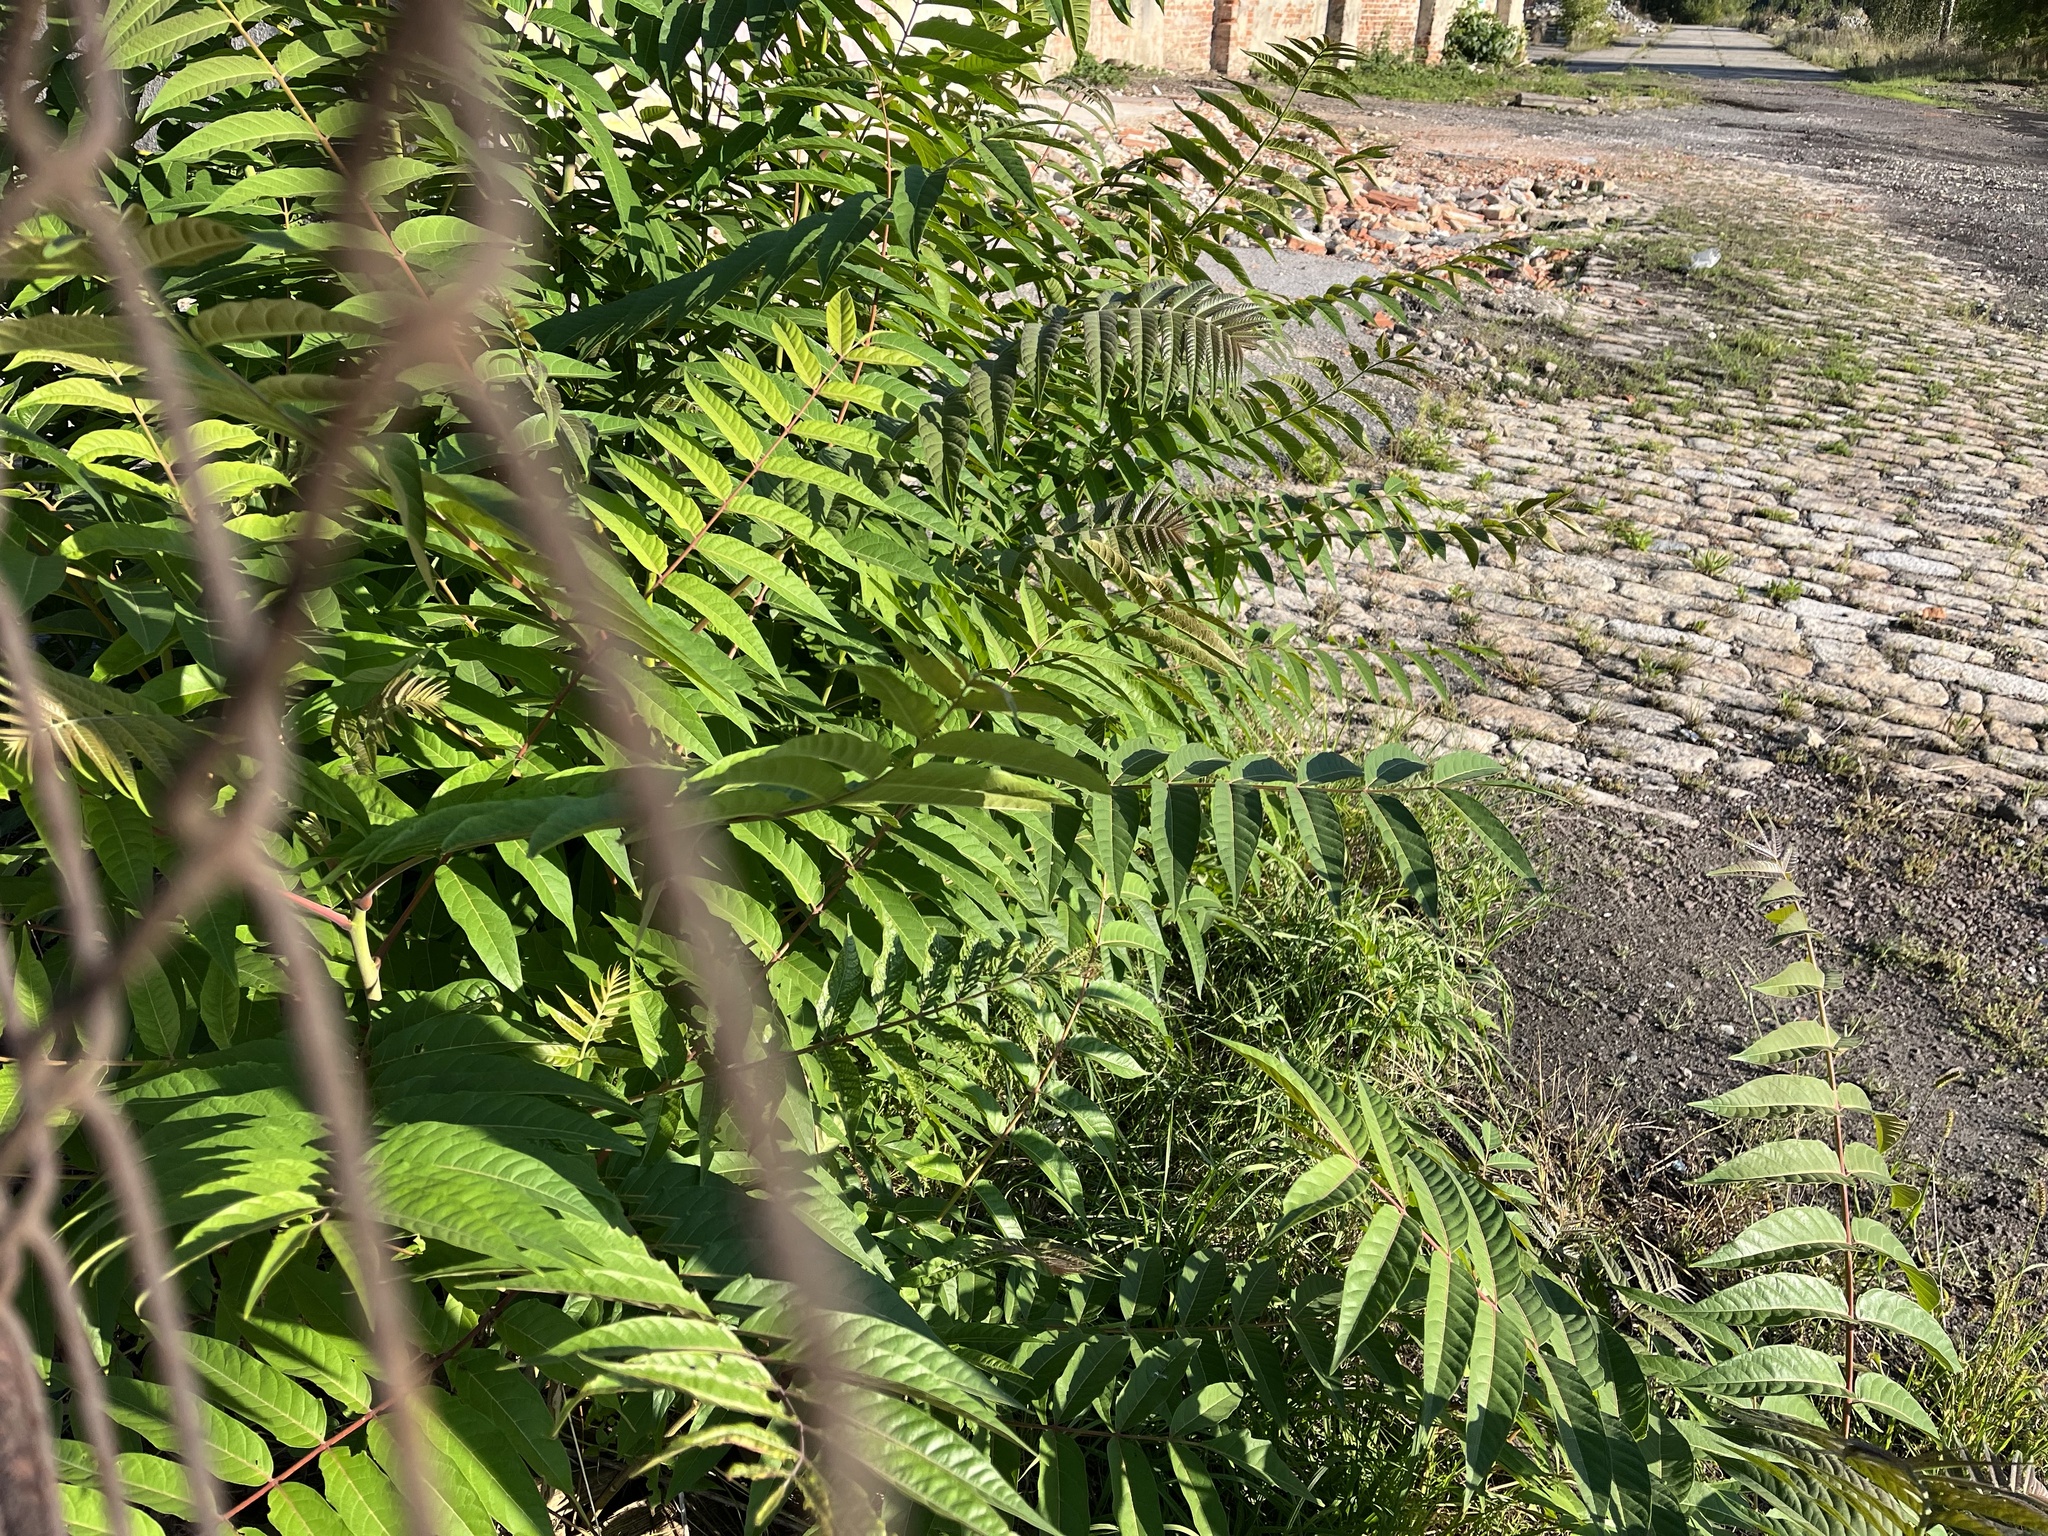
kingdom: Plantae
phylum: Tracheophyta
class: Magnoliopsida
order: Sapindales
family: Simaroubaceae
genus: Ailanthus
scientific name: Ailanthus altissima
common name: Tree-of-heaven
